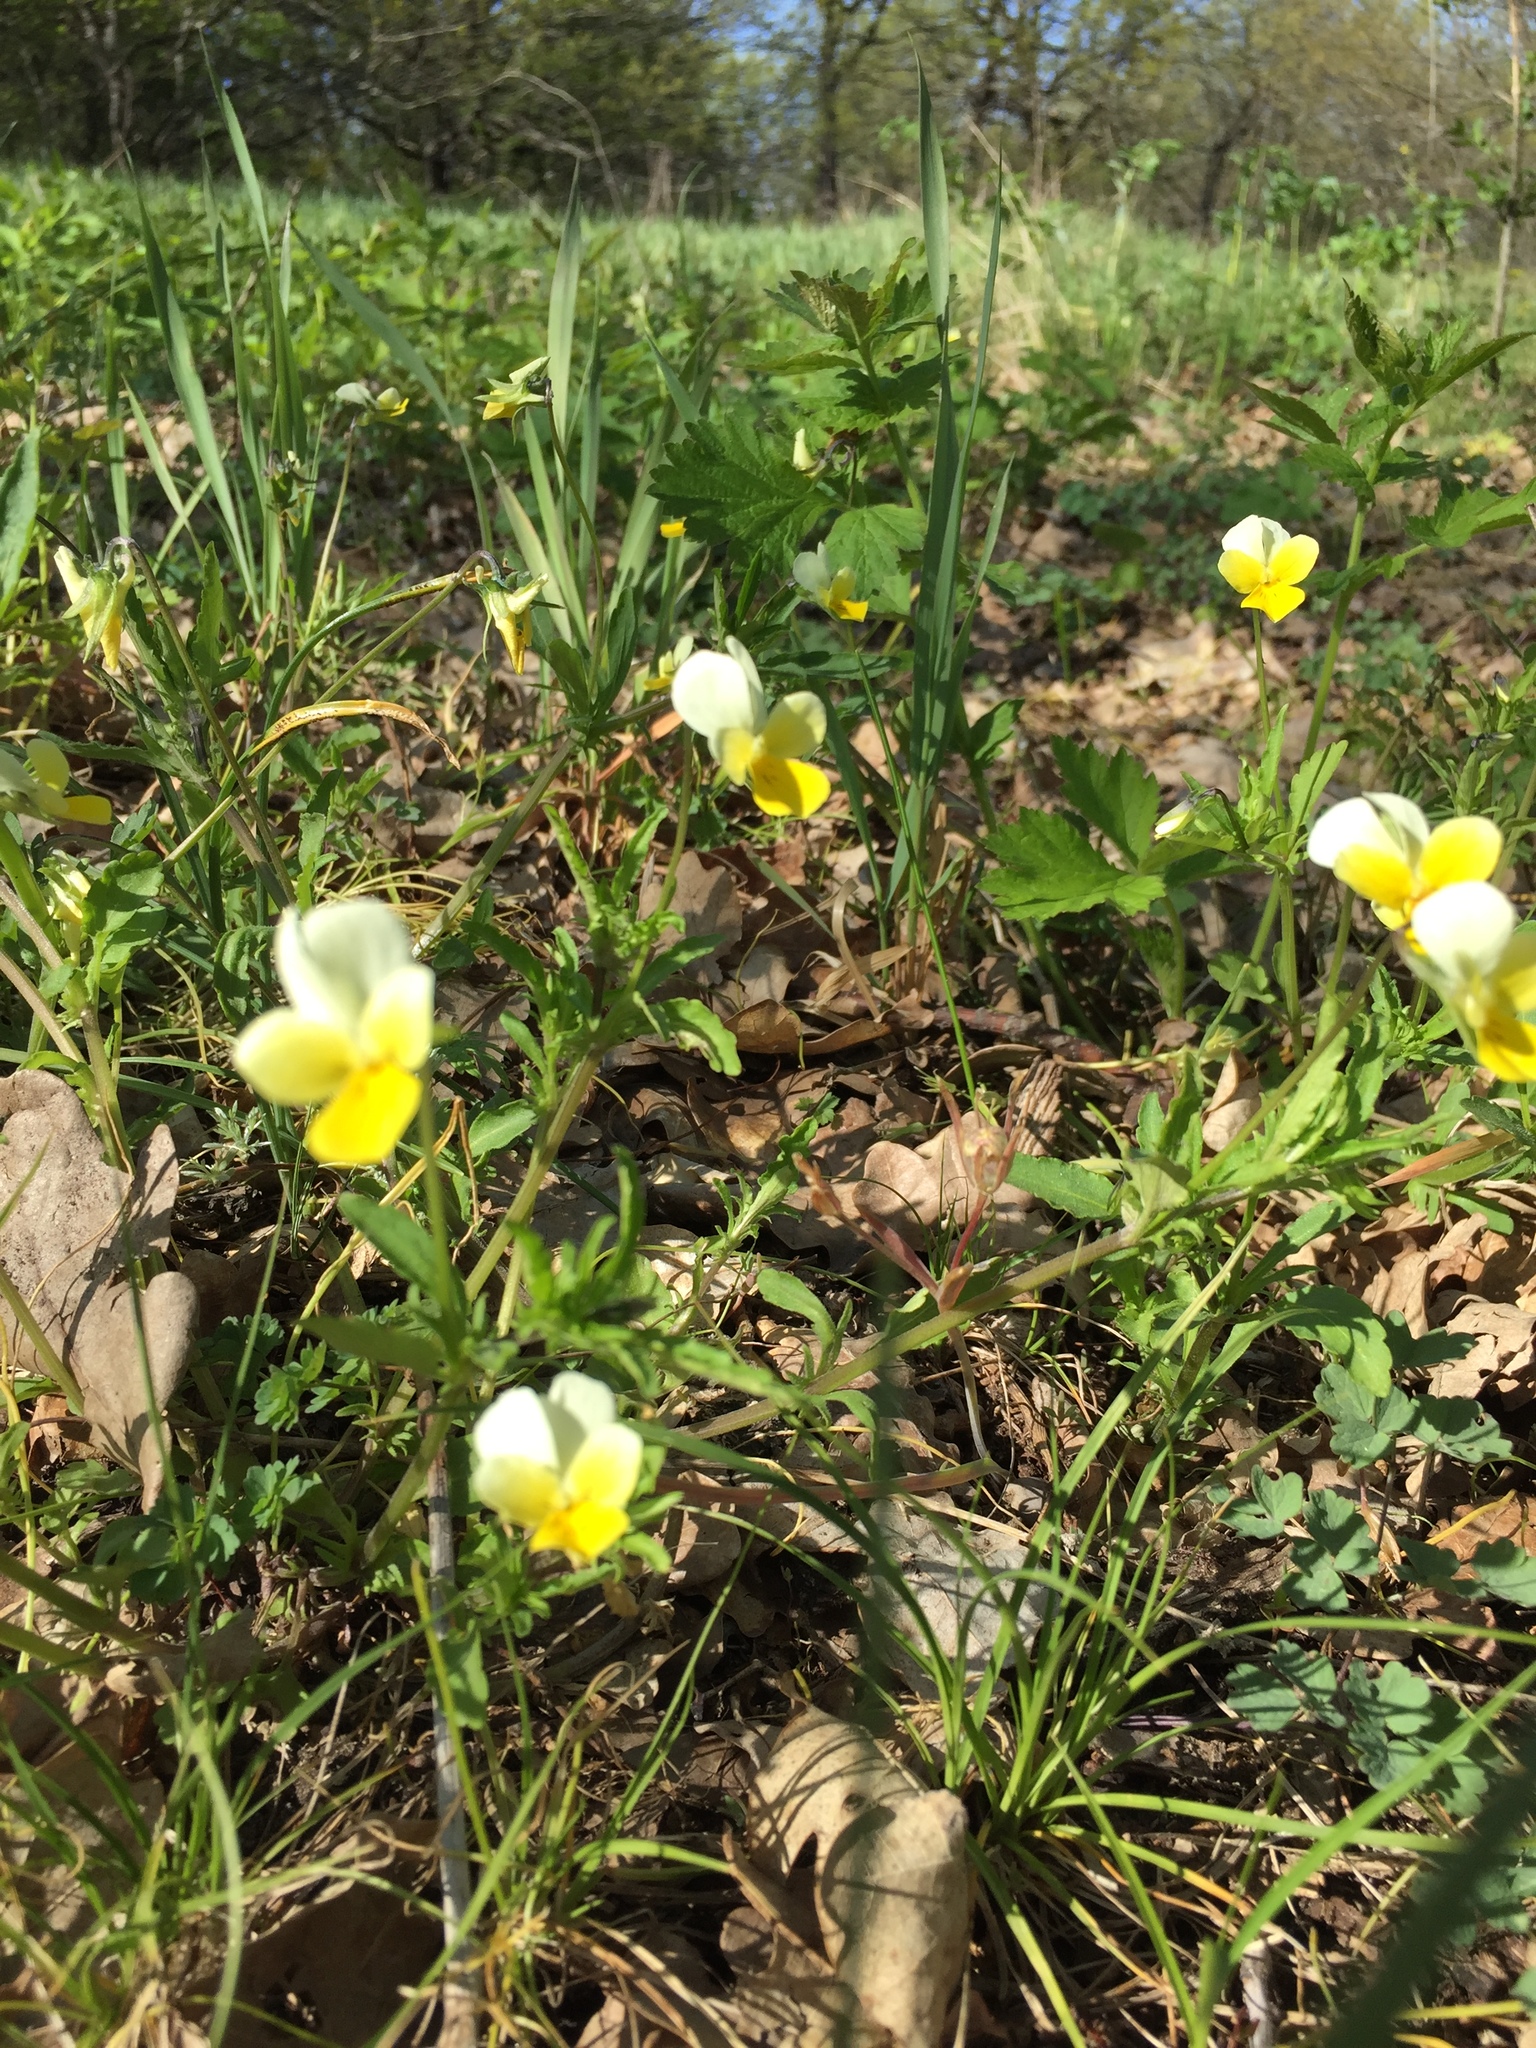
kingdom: Plantae
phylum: Tracheophyta
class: Magnoliopsida
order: Malpighiales
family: Violaceae
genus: Viola
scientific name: Viola arvensis
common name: Field pansy
